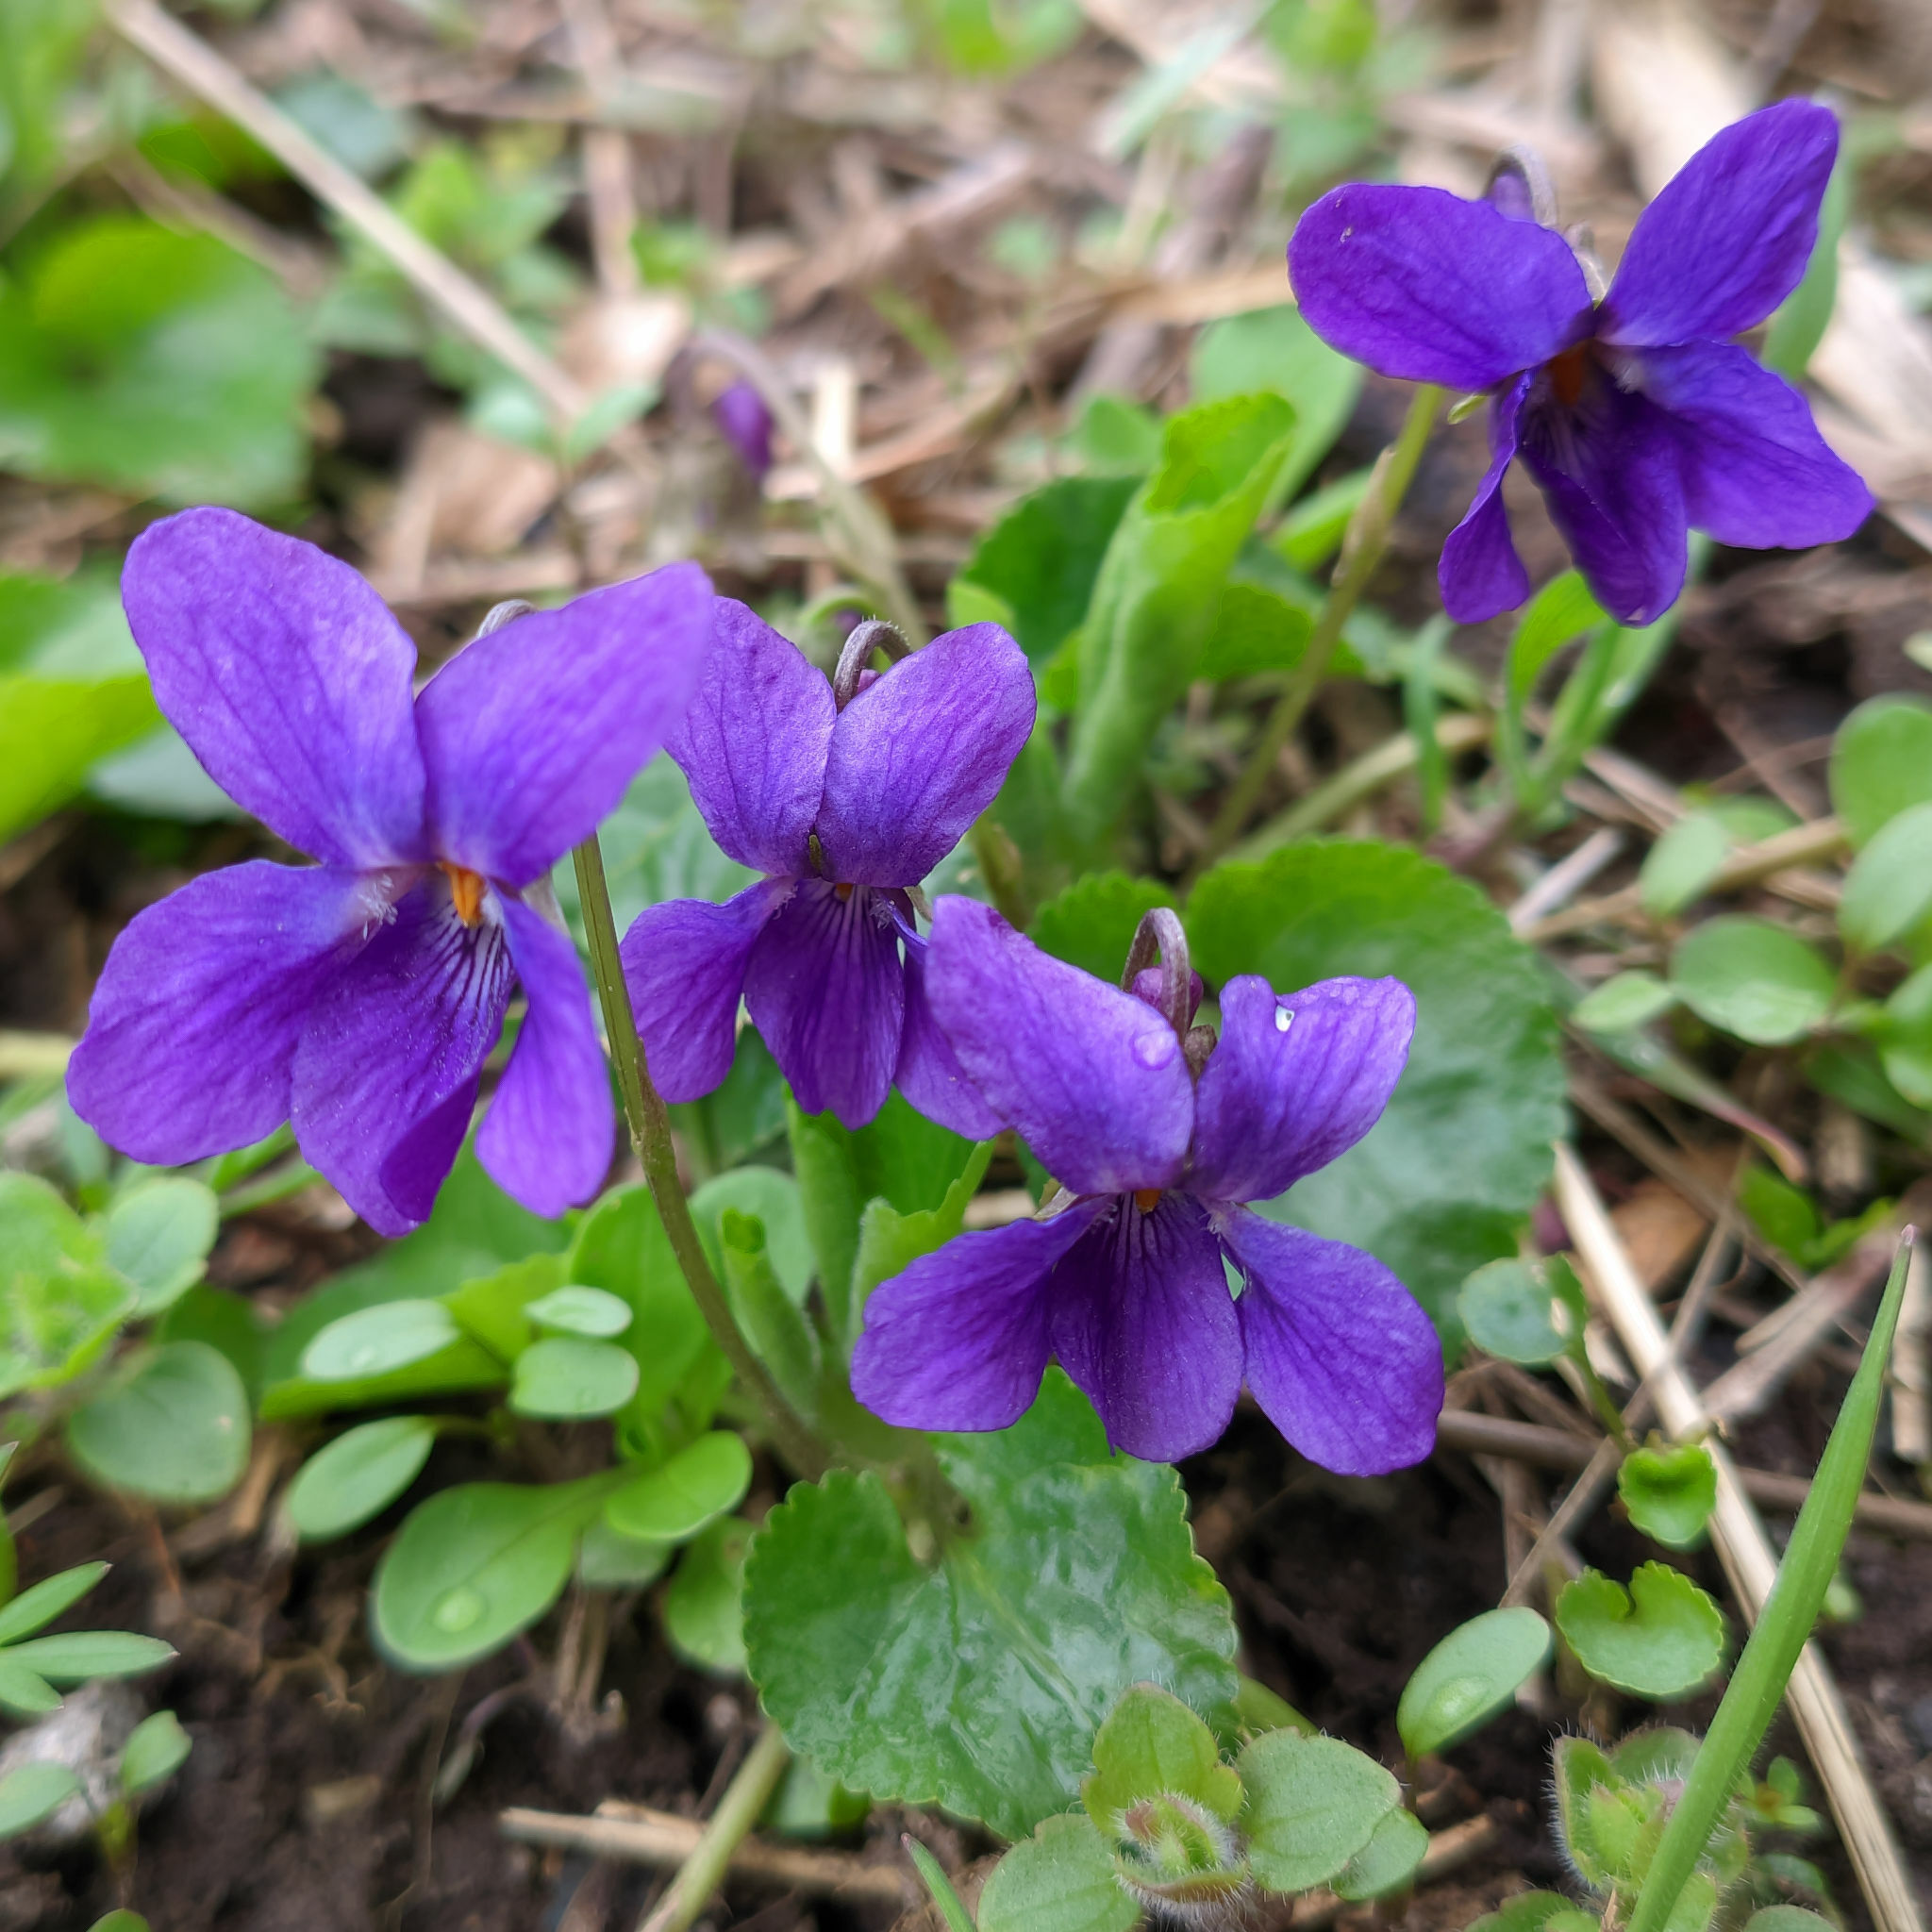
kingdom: Plantae
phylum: Tracheophyta
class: Magnoliopsida
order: Malpighiales
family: Violaceae
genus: Viola
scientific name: Viola odorata
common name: Sweet violet
